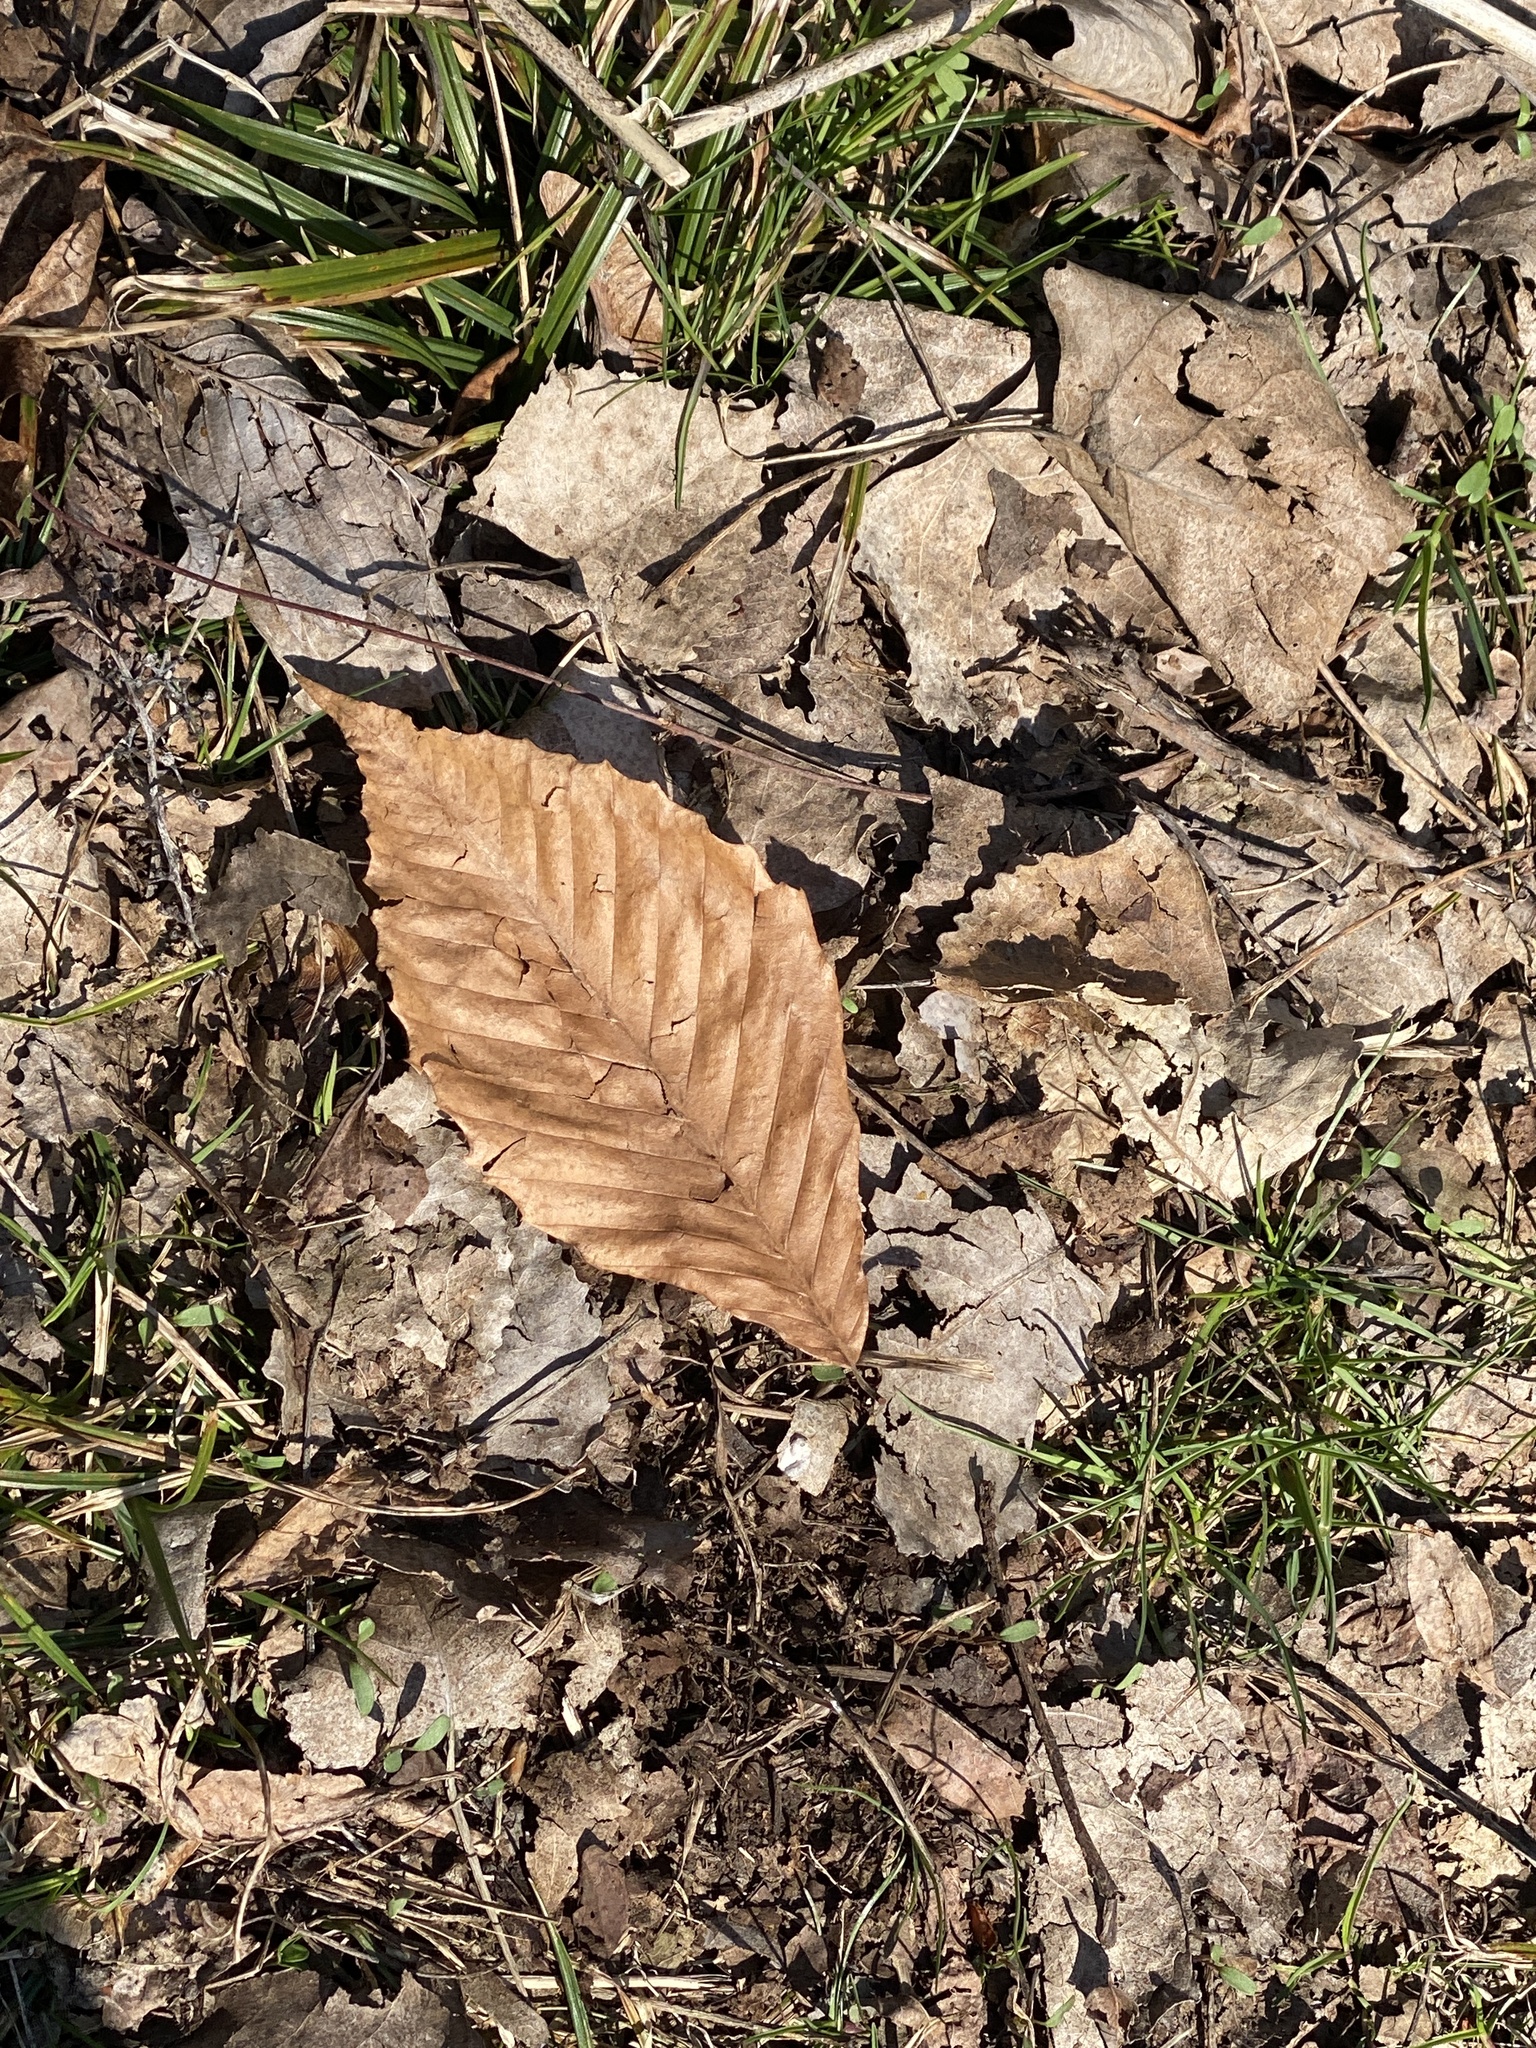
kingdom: Plantae
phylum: Tracheophyta
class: Magnoliopsida
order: Fagales
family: Fagaceae
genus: Fagus
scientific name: Fagus grandifolia
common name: American beech
